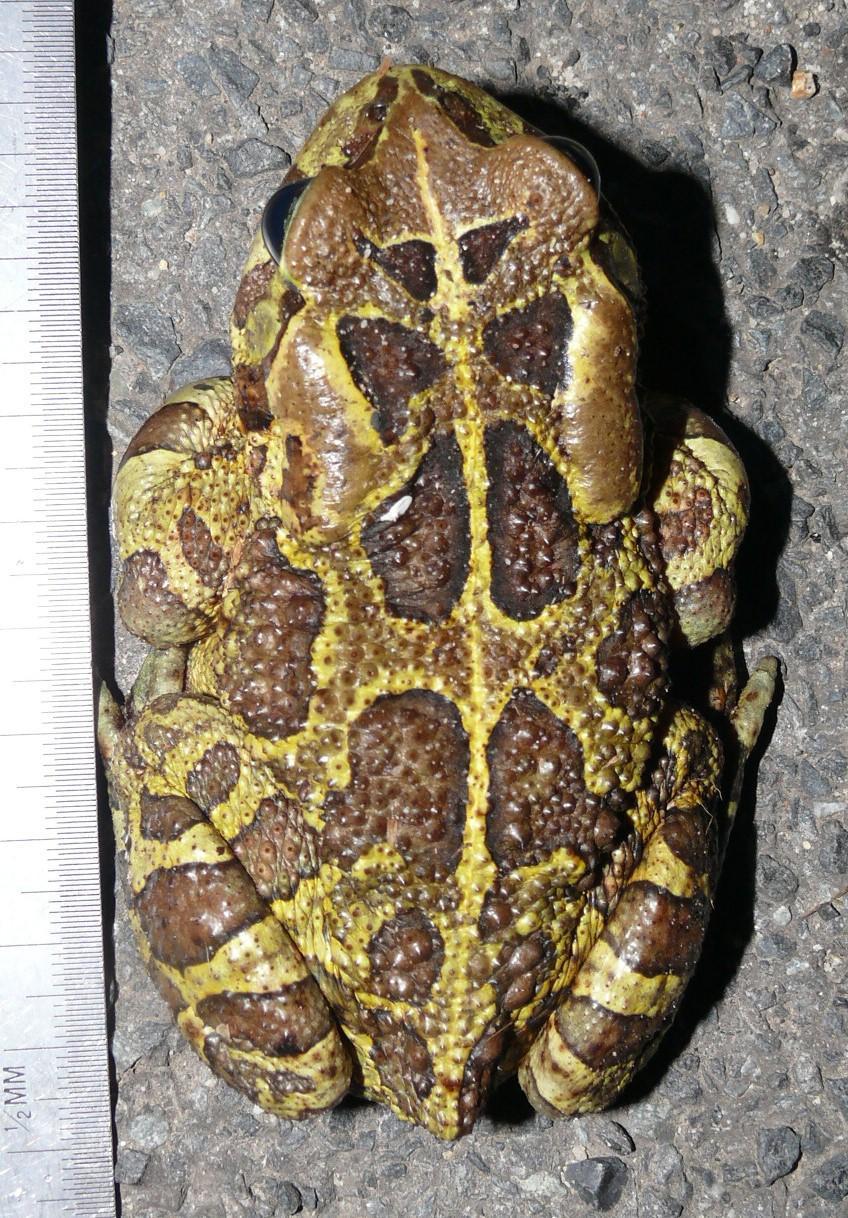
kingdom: Animalia
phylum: Chordata
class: Amphibia
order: Anura
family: Bufonidae
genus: Sclerophrys
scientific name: Sclerophrys pantherina
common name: Panther toad
